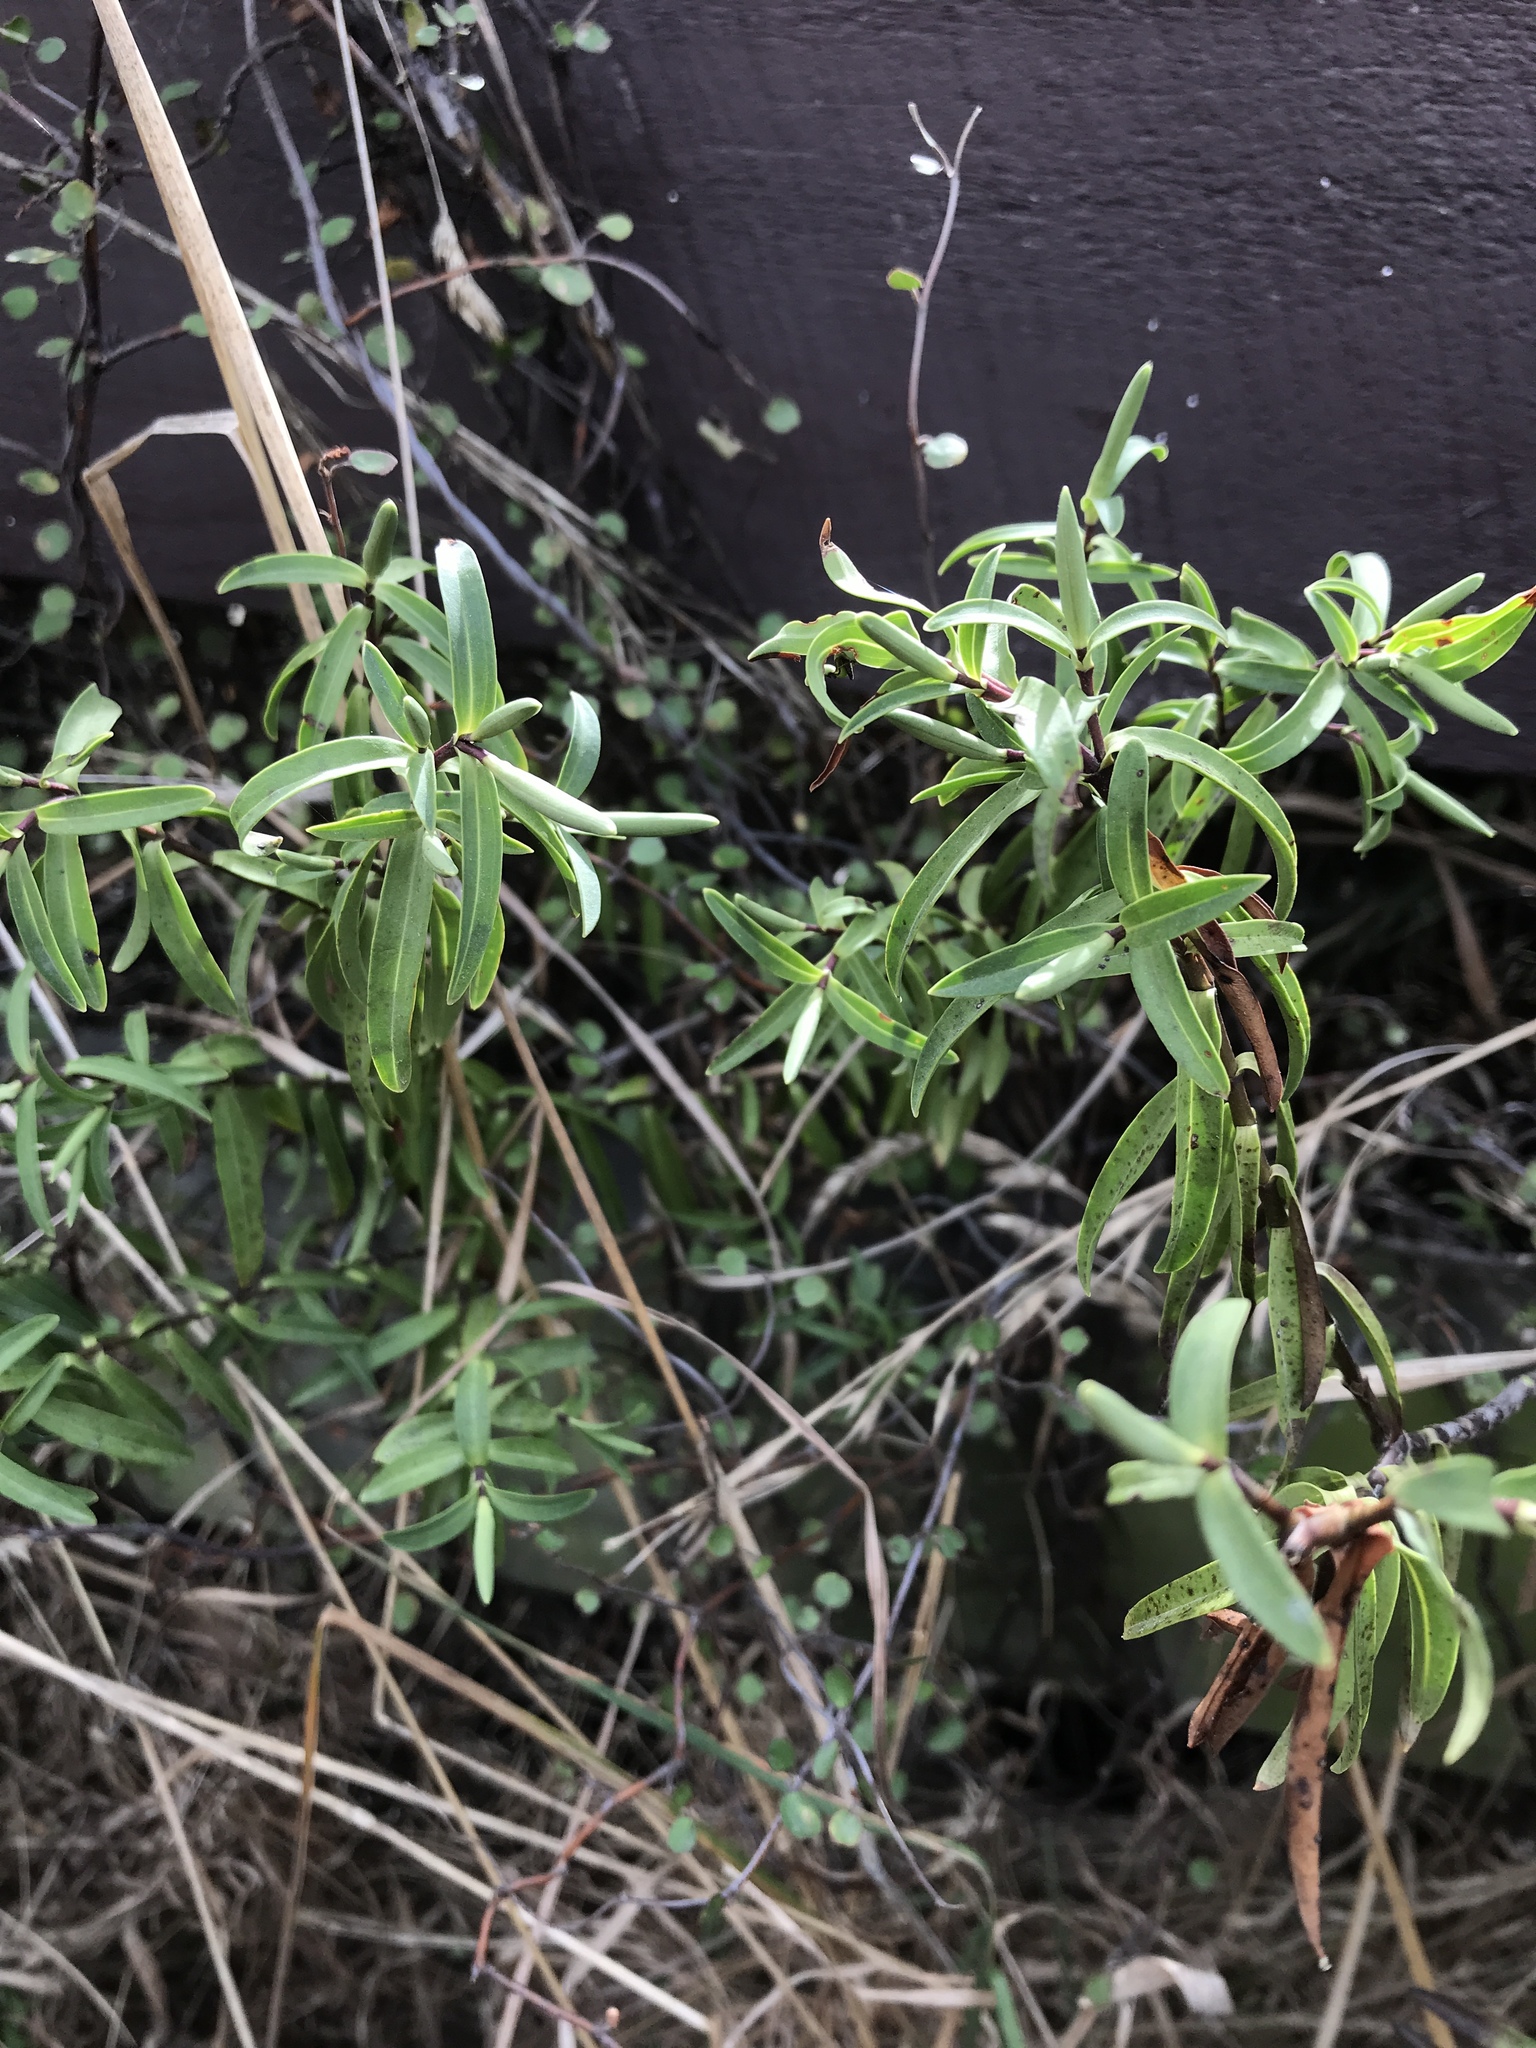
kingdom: Plantae
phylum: Tracheophyta
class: Magnoliopsida
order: Lamiales
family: Plantaginaceae
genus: Veronica
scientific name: Veronica strictissima
